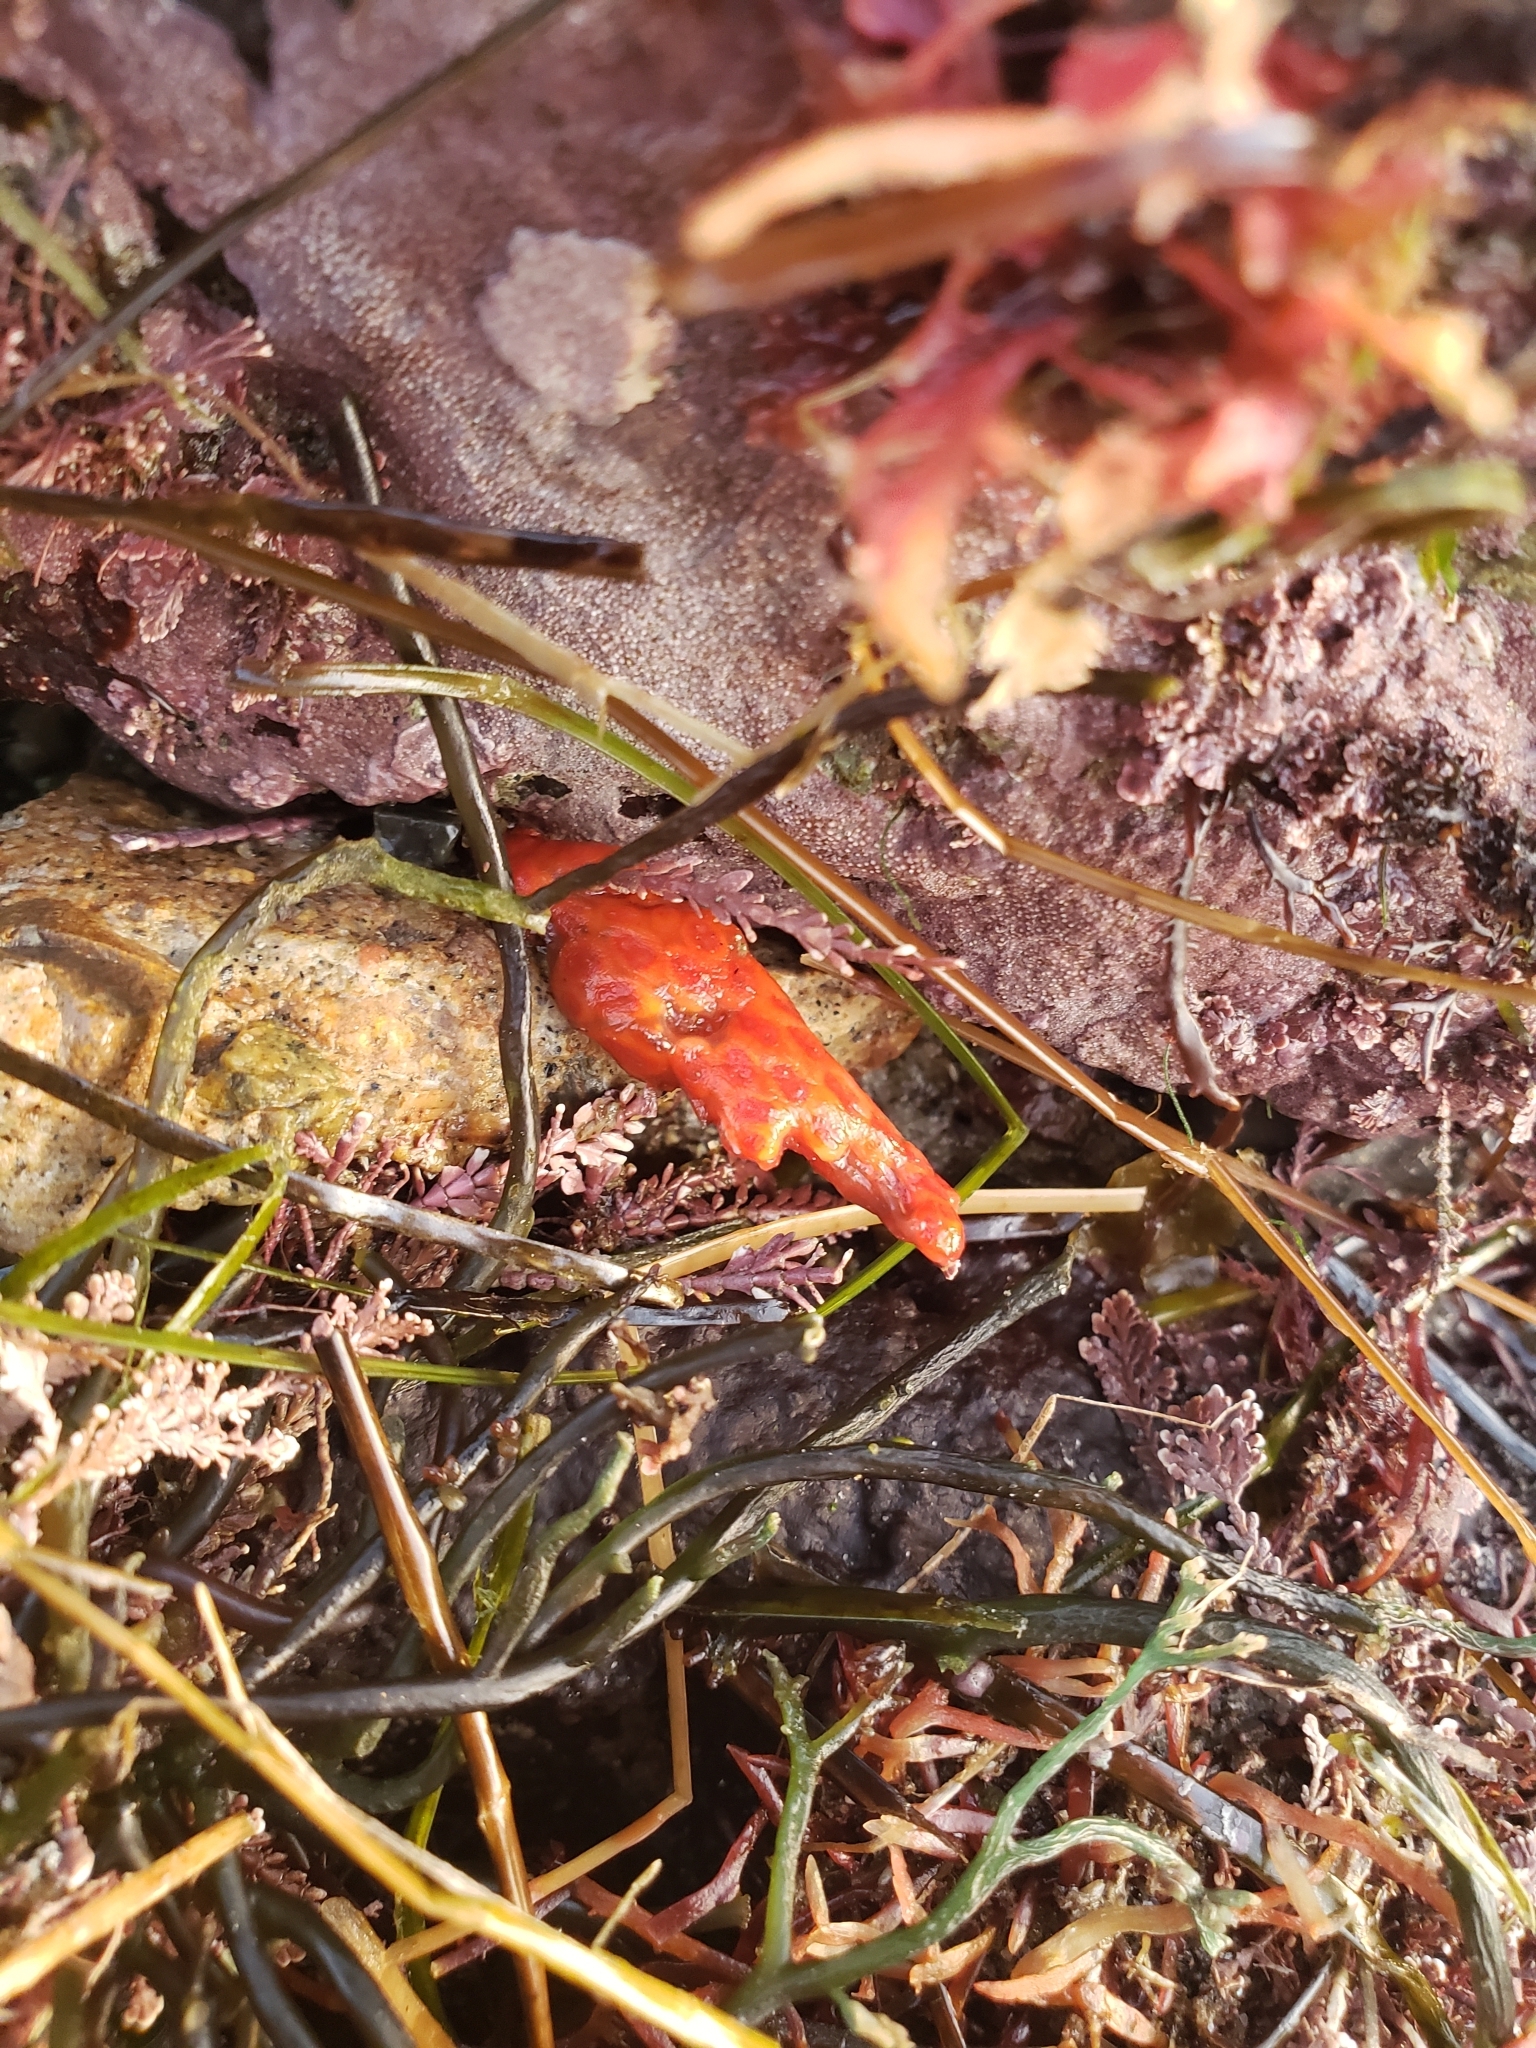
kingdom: Animalia
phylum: Chordata
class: Ascidiacea
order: Stolidobranchia
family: Styelidae
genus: Metandrocarpa
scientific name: Metandrocarpa dura
